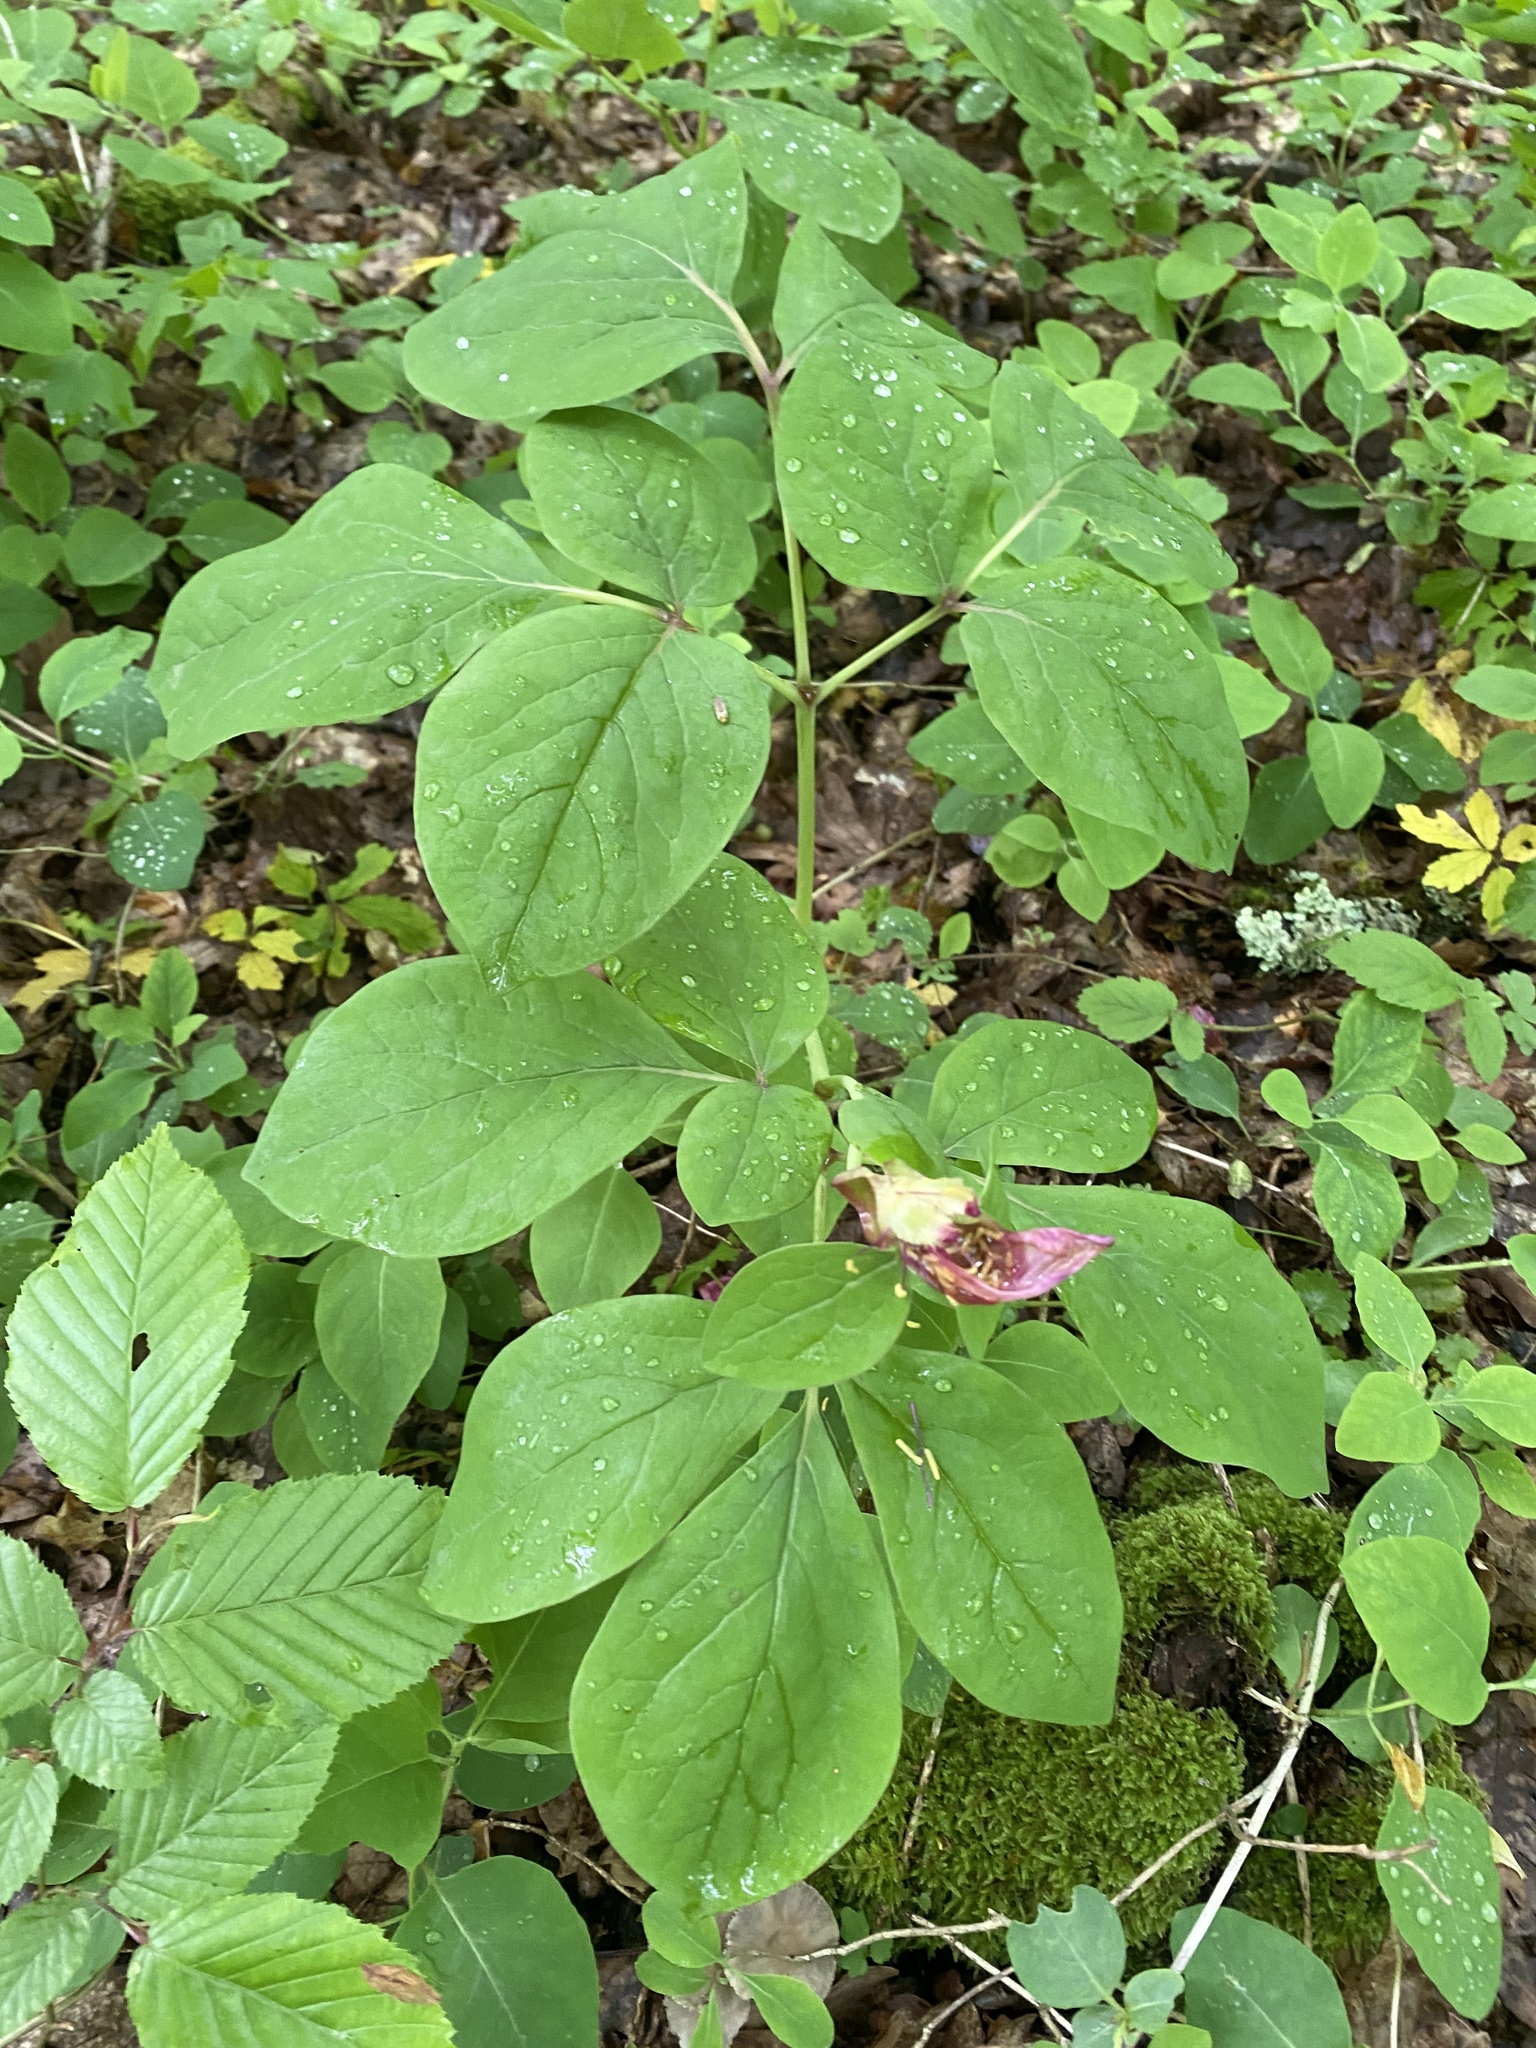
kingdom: Plantae
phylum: Tracheophyta
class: Magnoliopsida
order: Saxifragales
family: Paeoniaceae
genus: Paeonia
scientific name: Paeonia caucasica
